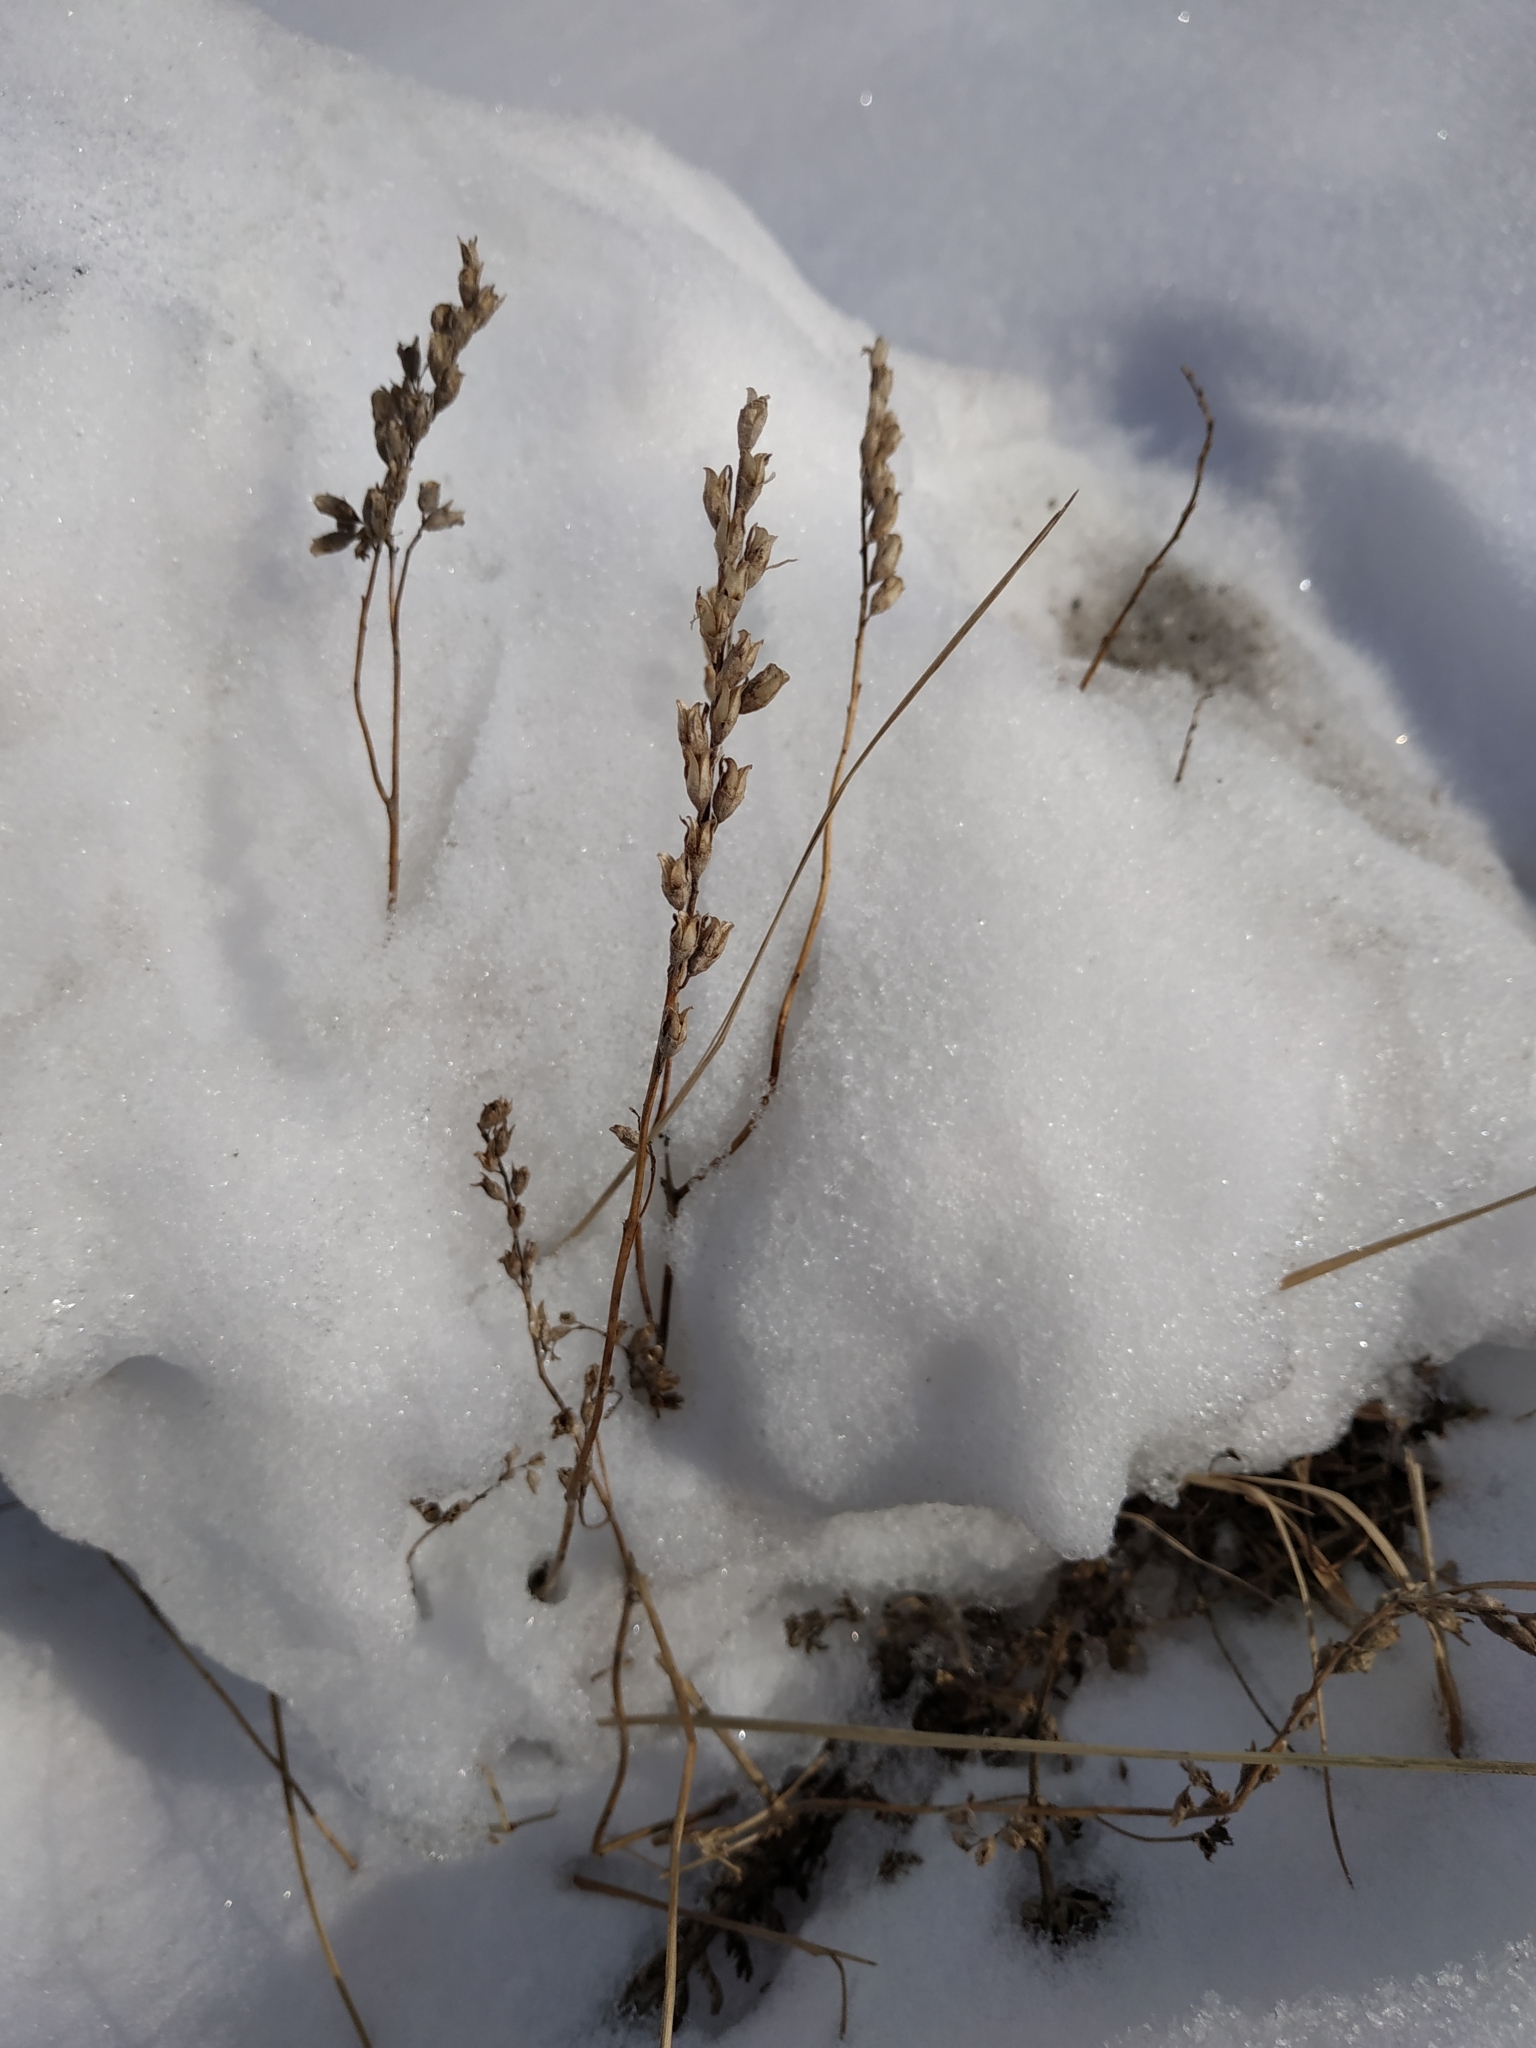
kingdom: Plantae
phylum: Tracheophyta
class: Magnoliopsida
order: Lamiales
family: Orobanchaceae
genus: Odontites
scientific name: Odontites vulgaris
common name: Broomrape
